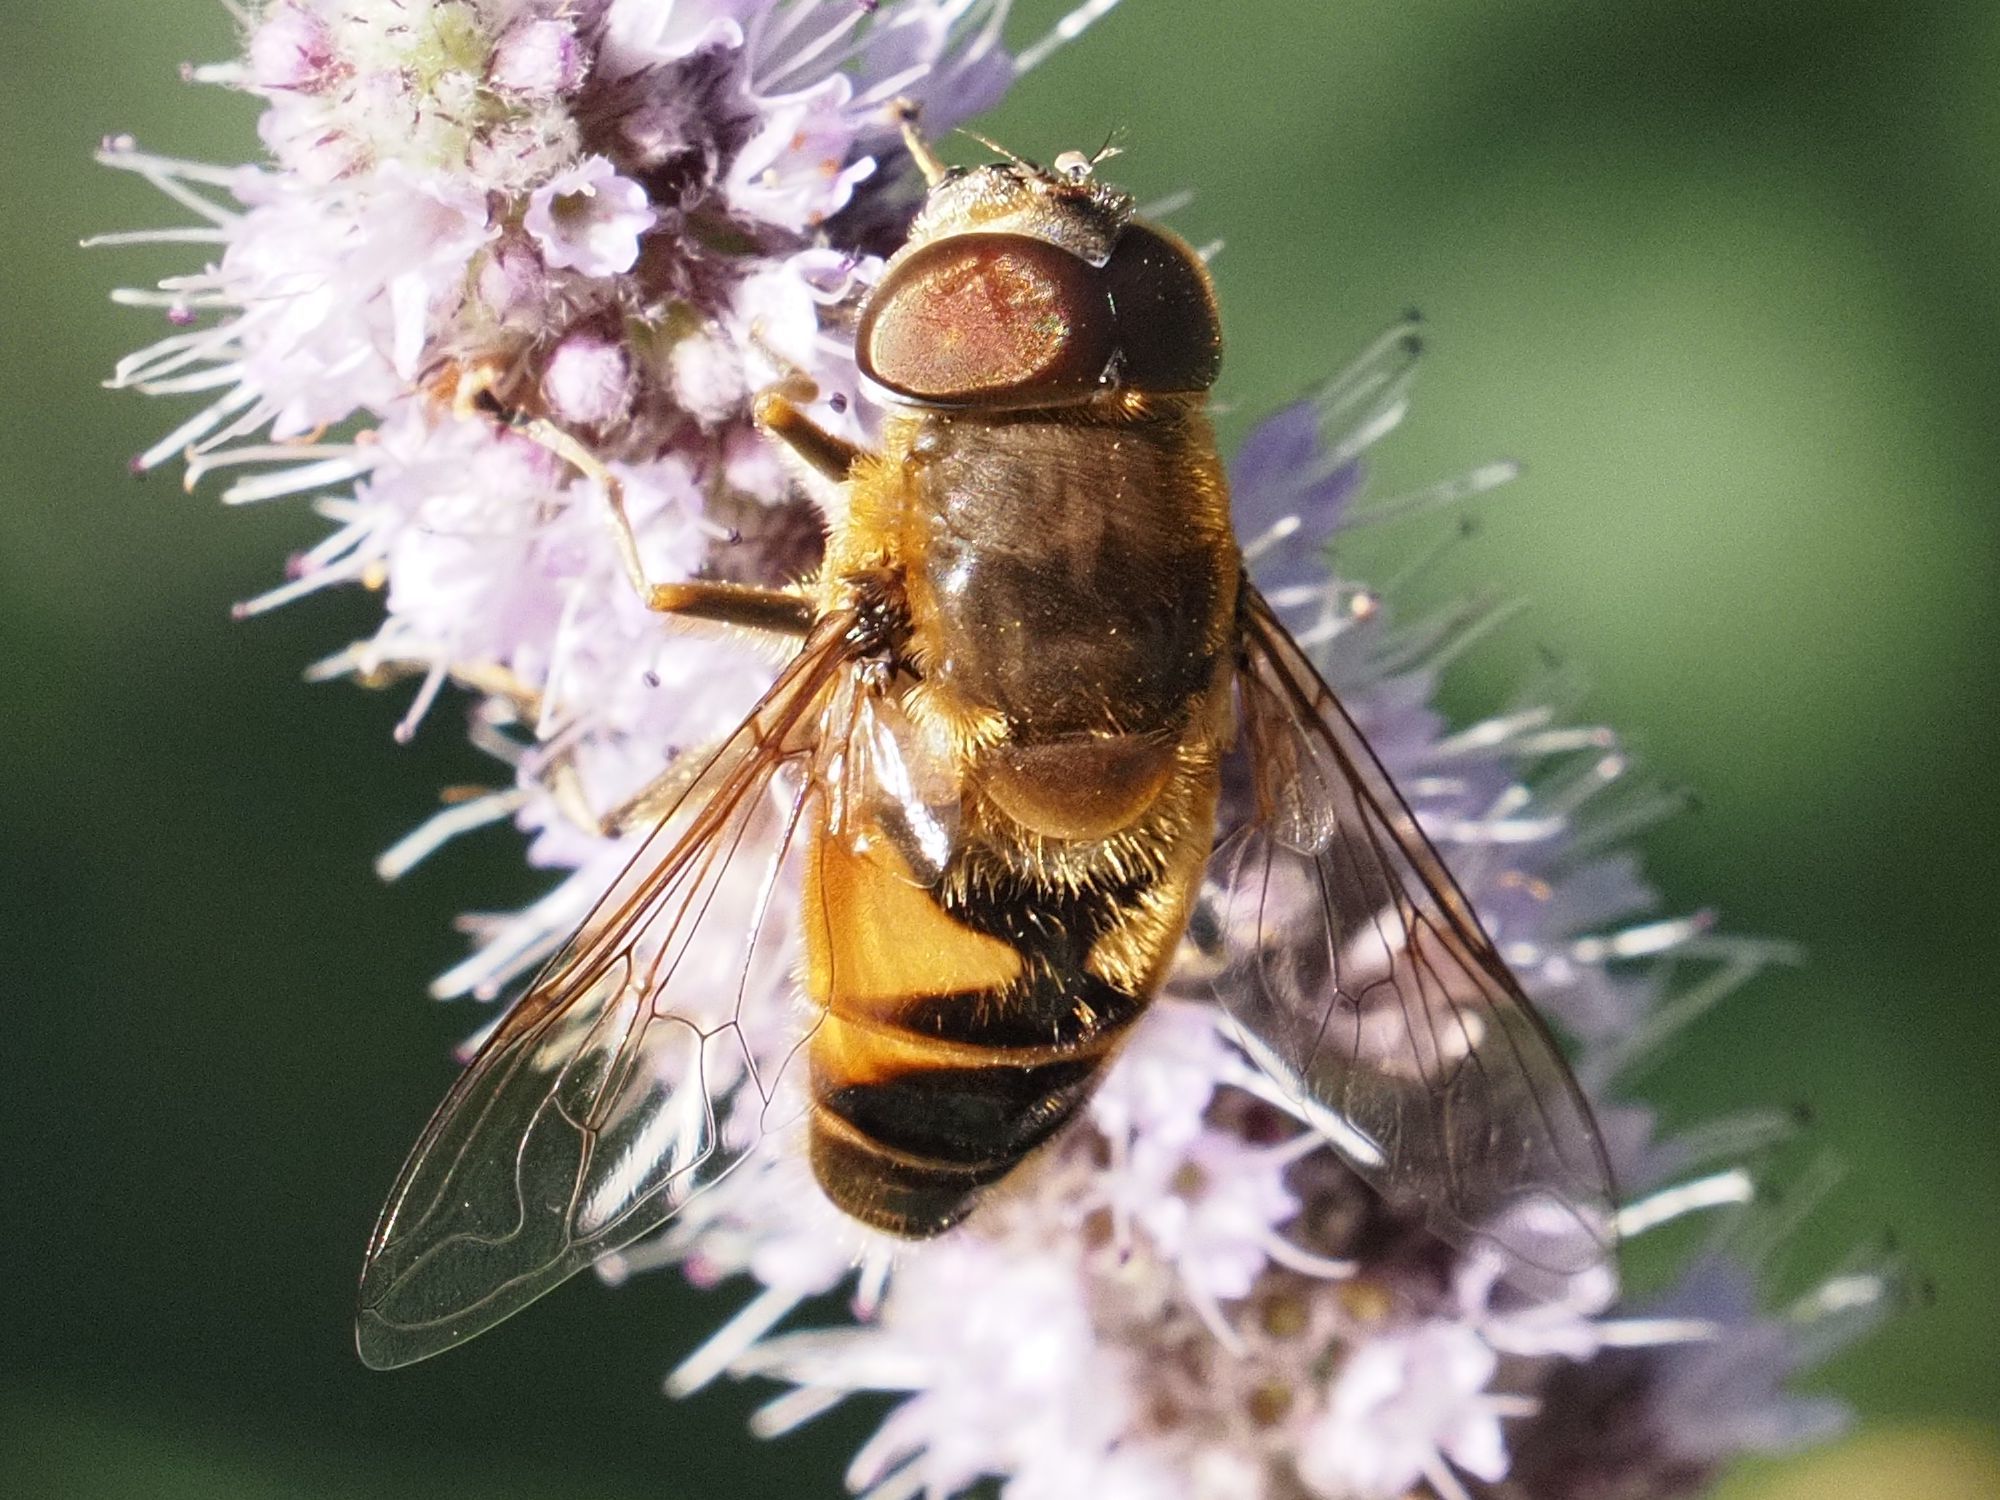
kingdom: Animalia
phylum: Arthropoda
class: Insecta
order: Diptera
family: Syrphidae
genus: Eristalis
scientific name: Eristalis pertinax
